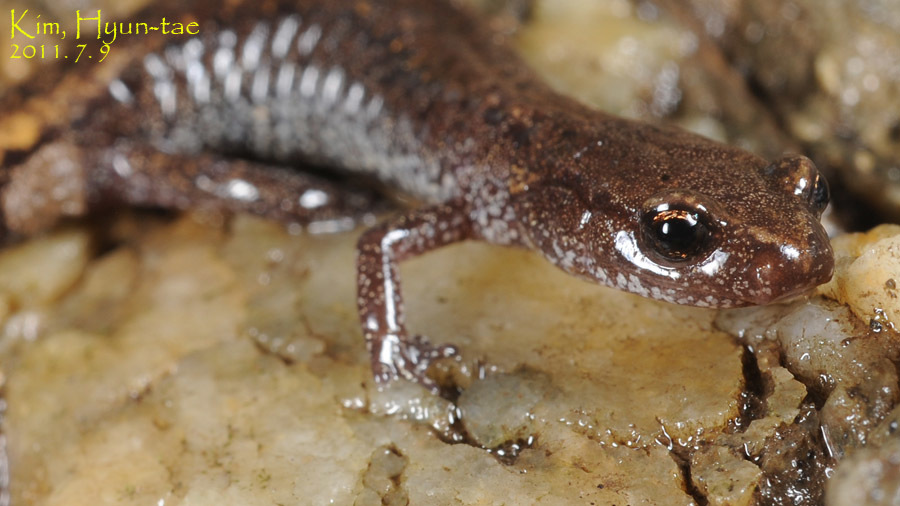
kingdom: Animalia
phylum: Chordata
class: Amphibia
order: Caudata
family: Plethodontidae
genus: Karsenia
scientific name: Karsenia koreana
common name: Korean crevice salamander
